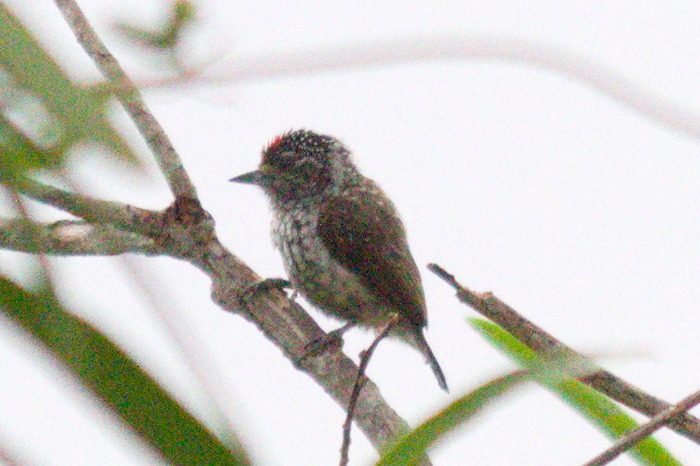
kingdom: Animalia
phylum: Chordata
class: Aves
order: Piciformes
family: Picidae
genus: Picumnus
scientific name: Picumnus albosquamatus
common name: White-wedged piculet
